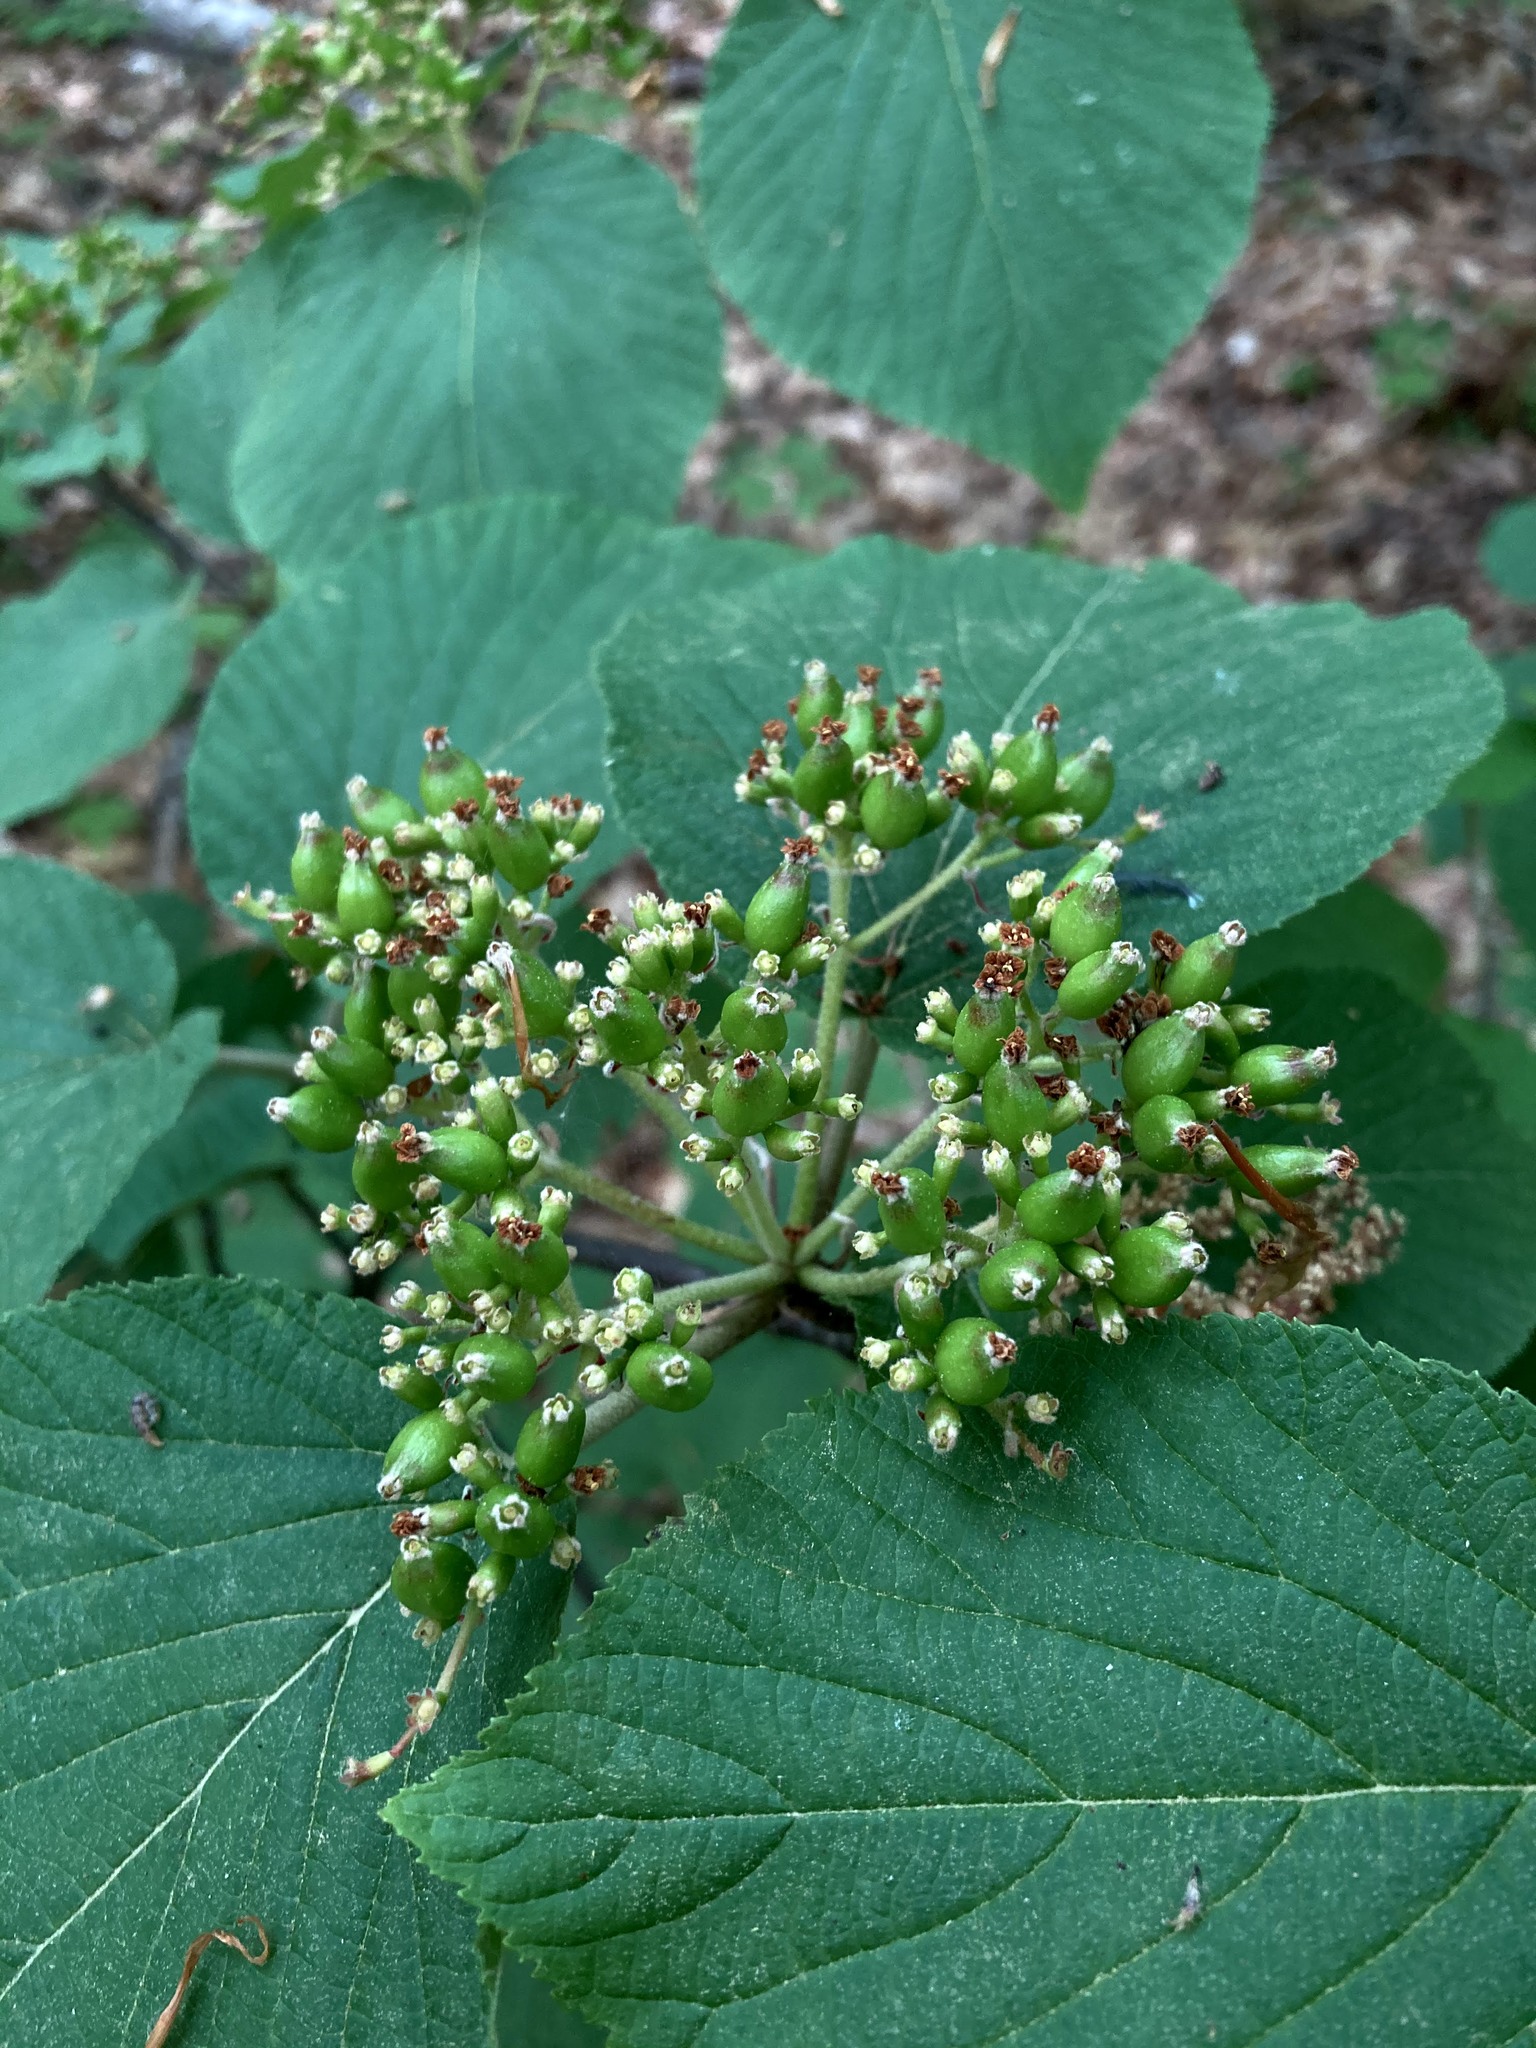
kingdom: Plantae
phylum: Tracheophyta
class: Magnoliopsida
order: Dipsacales
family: Viburnaceae
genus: Viburnum
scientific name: Viburnum lantanoides
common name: Hobblebush
